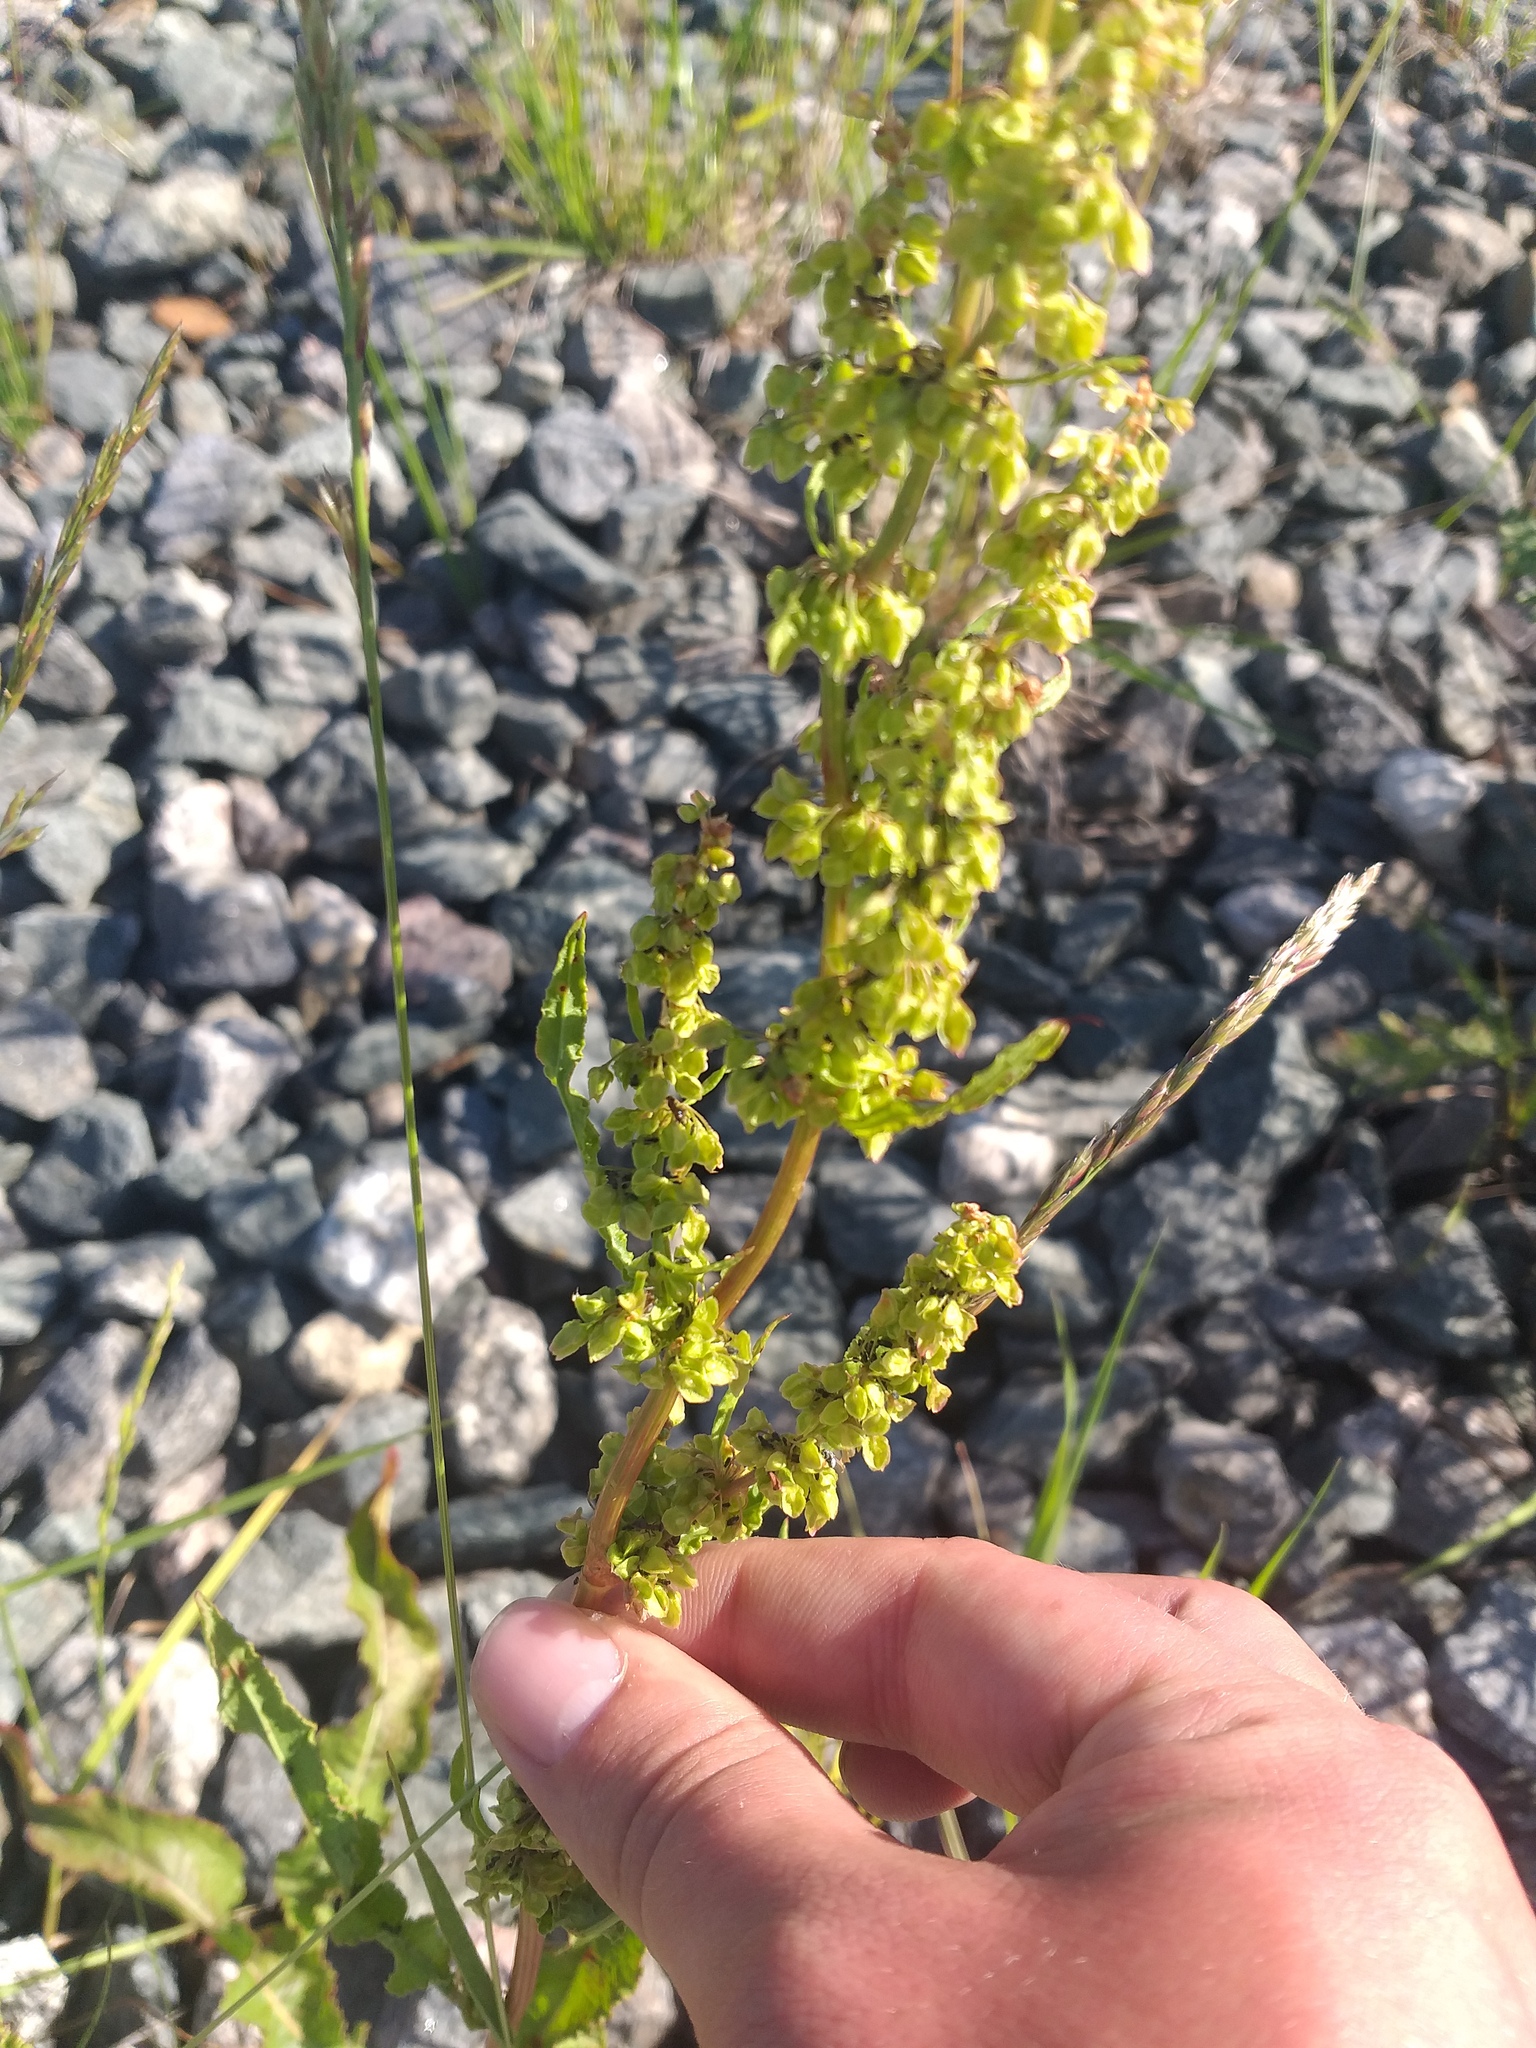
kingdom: Plantae
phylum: Tracheophyta
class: Magnoliopsida
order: Caryophyllales
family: Polygonaceae
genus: Rumex
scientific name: Rumex crispus
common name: Curled dock
